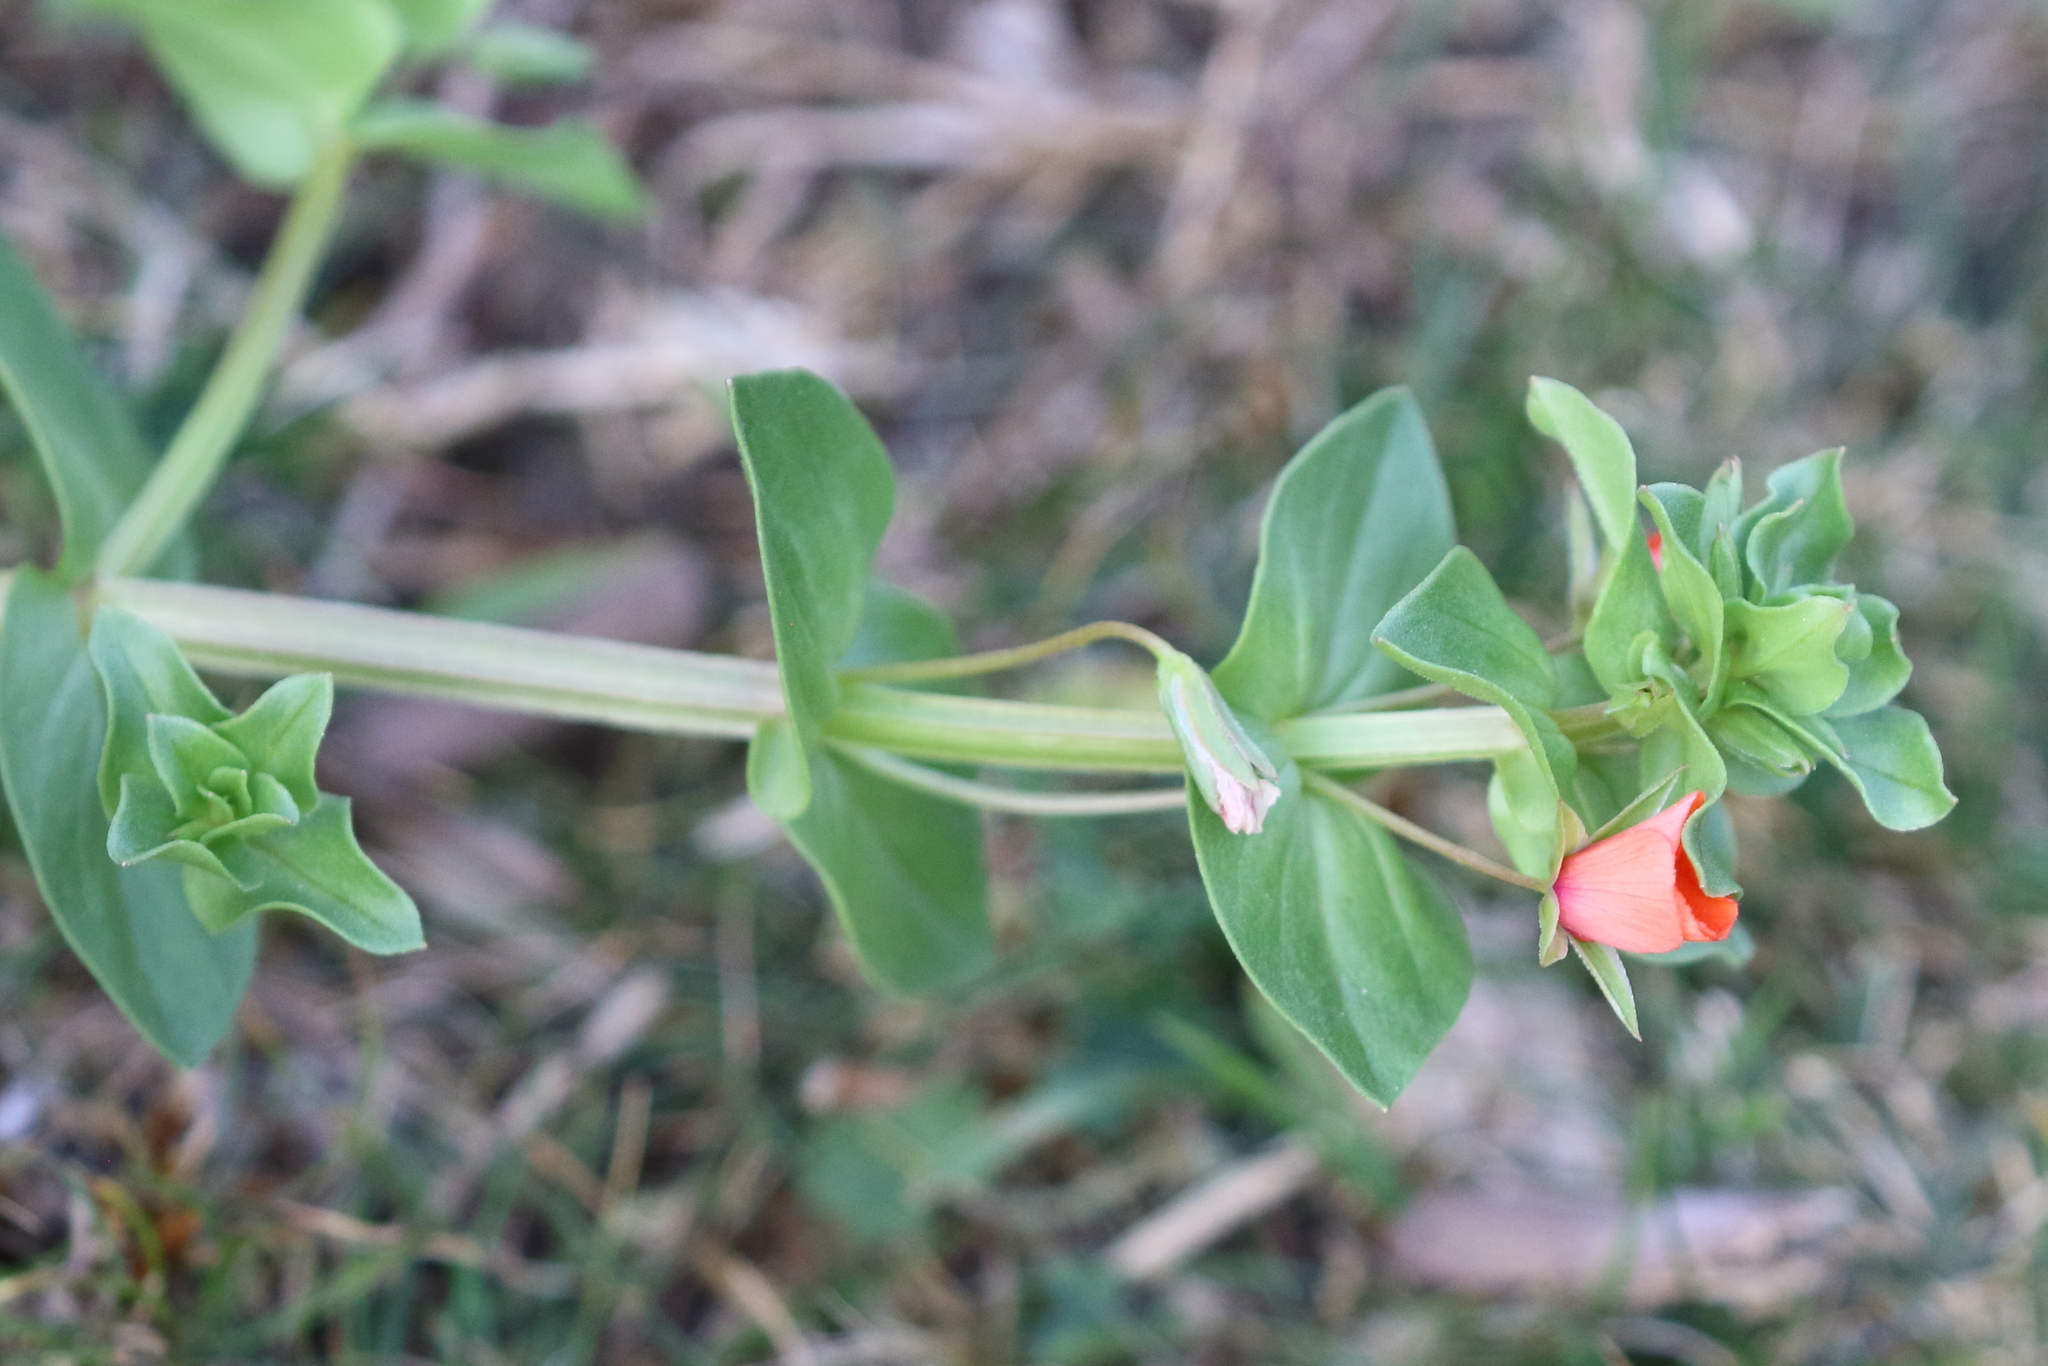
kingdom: Plantae
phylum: Tracheophyta
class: Magnoliopsida
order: Ericales
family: Primulaceae
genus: Lysimachia
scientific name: Lysimachia arvensis
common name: Scarlet pimpernel
